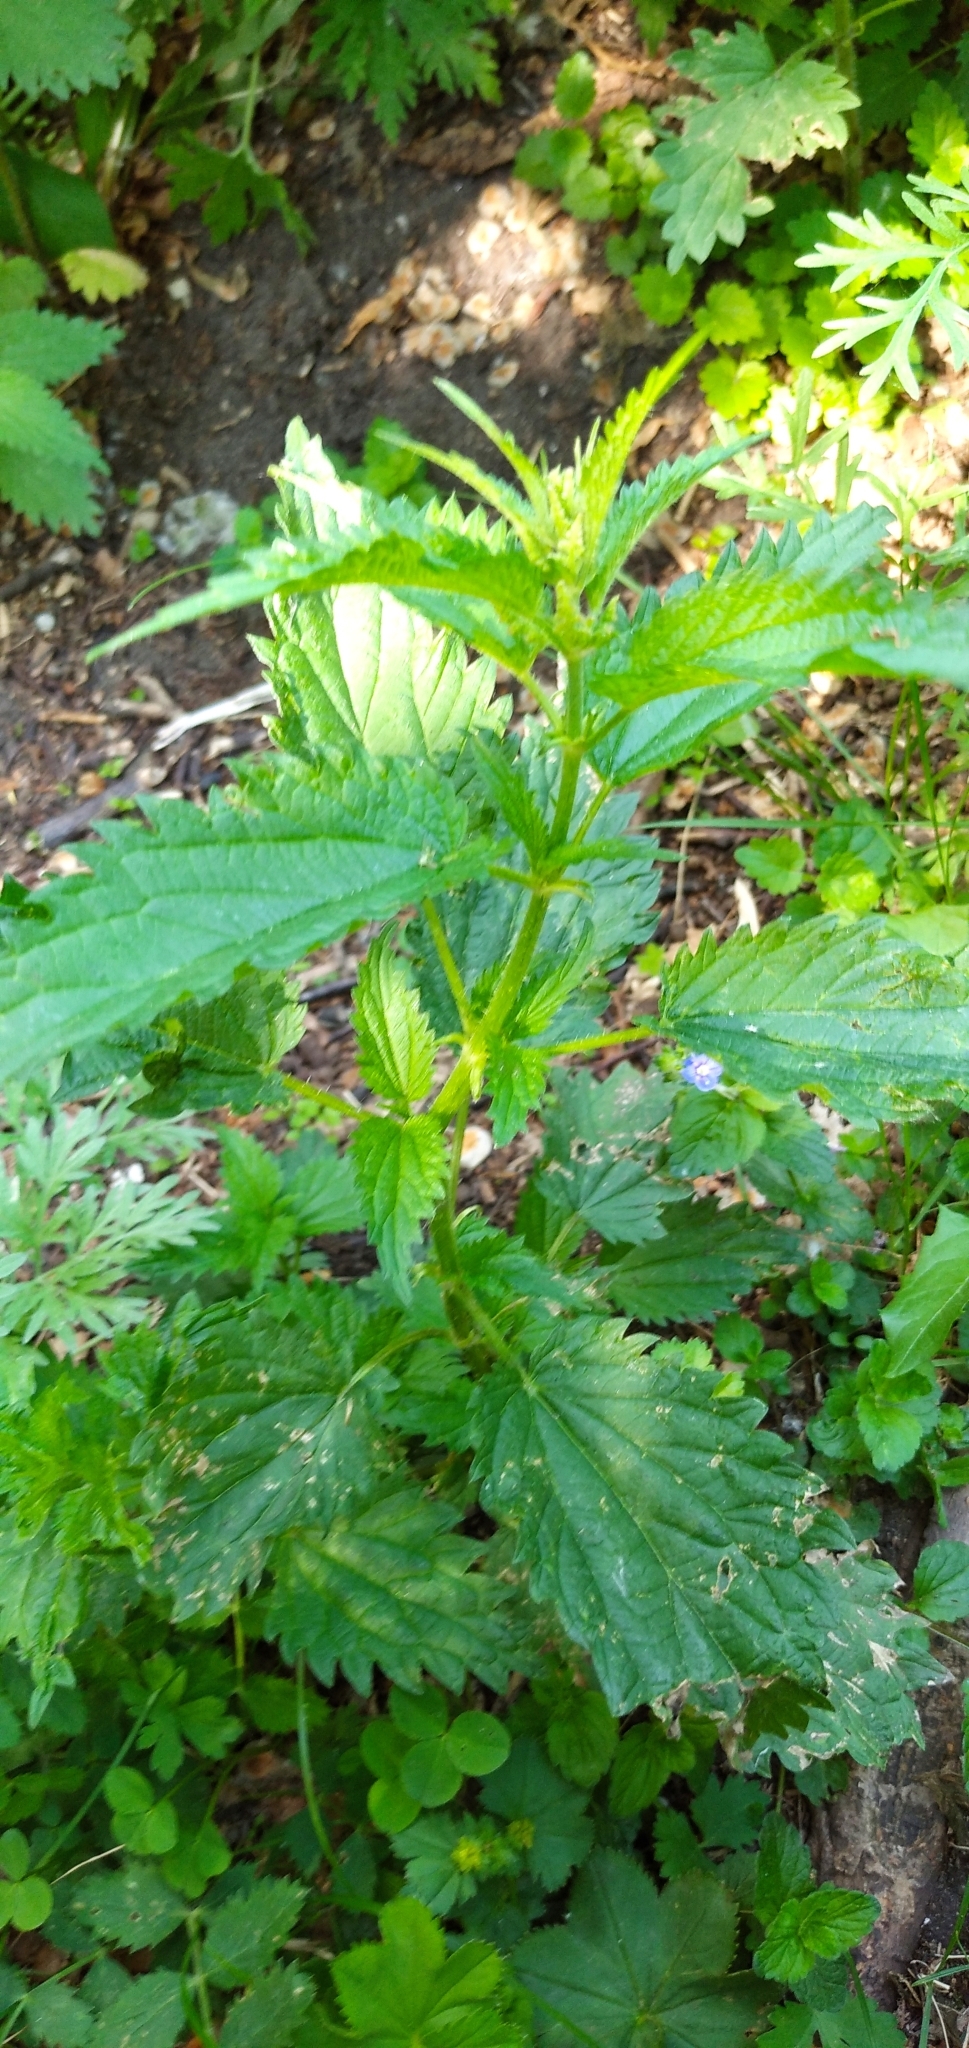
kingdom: Plantae
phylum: Tracheophyta
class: Magnoliopsida
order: Rosales
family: Urticaceae
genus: Urtica
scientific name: Urtica dioica
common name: Common nettle
